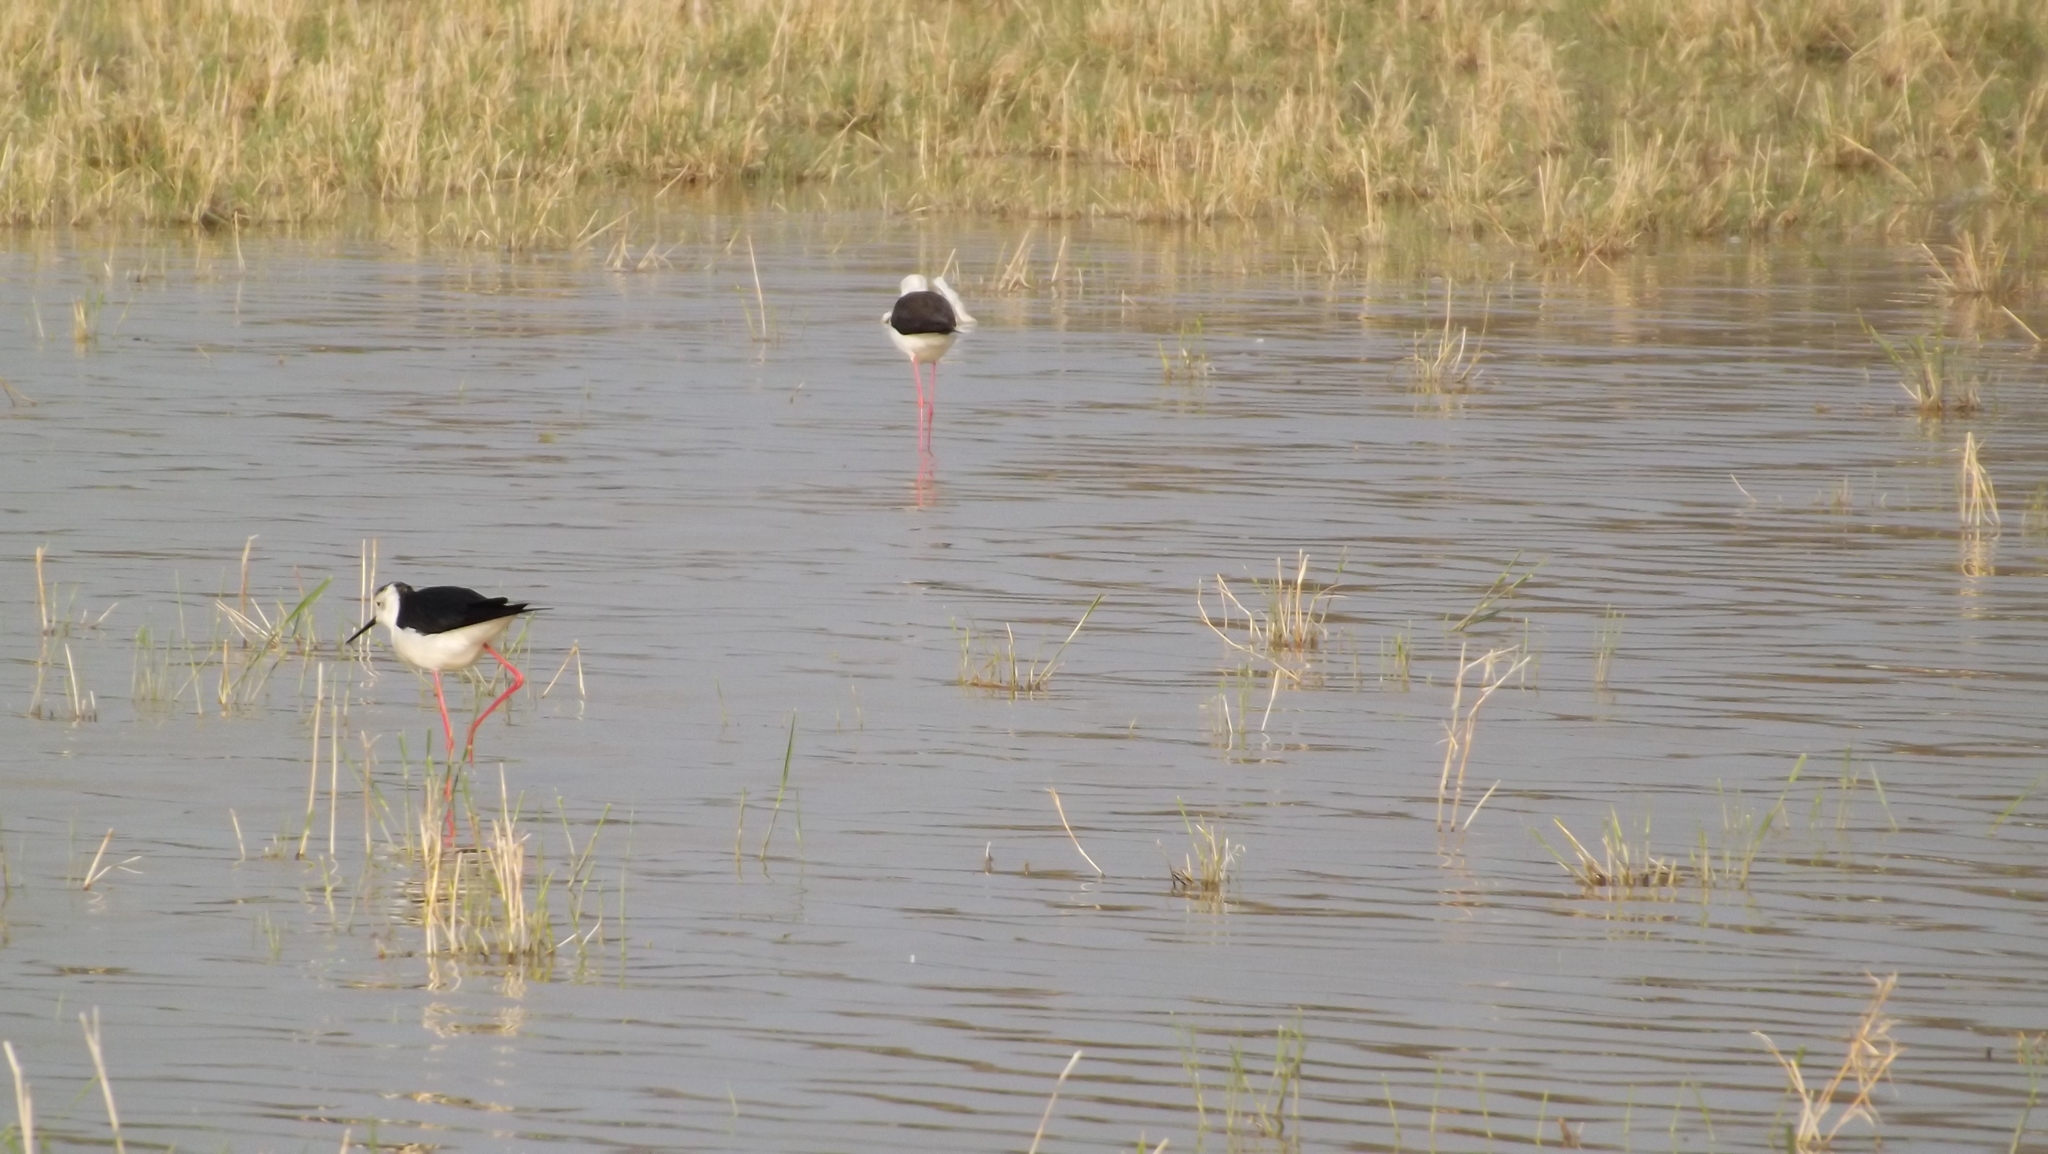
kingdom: Animalia
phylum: Chordata
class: Aves
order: Charadriiformes
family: Recurvirostridae
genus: Himantopus
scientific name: Himantopus himantopus
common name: Black-winged stilt
